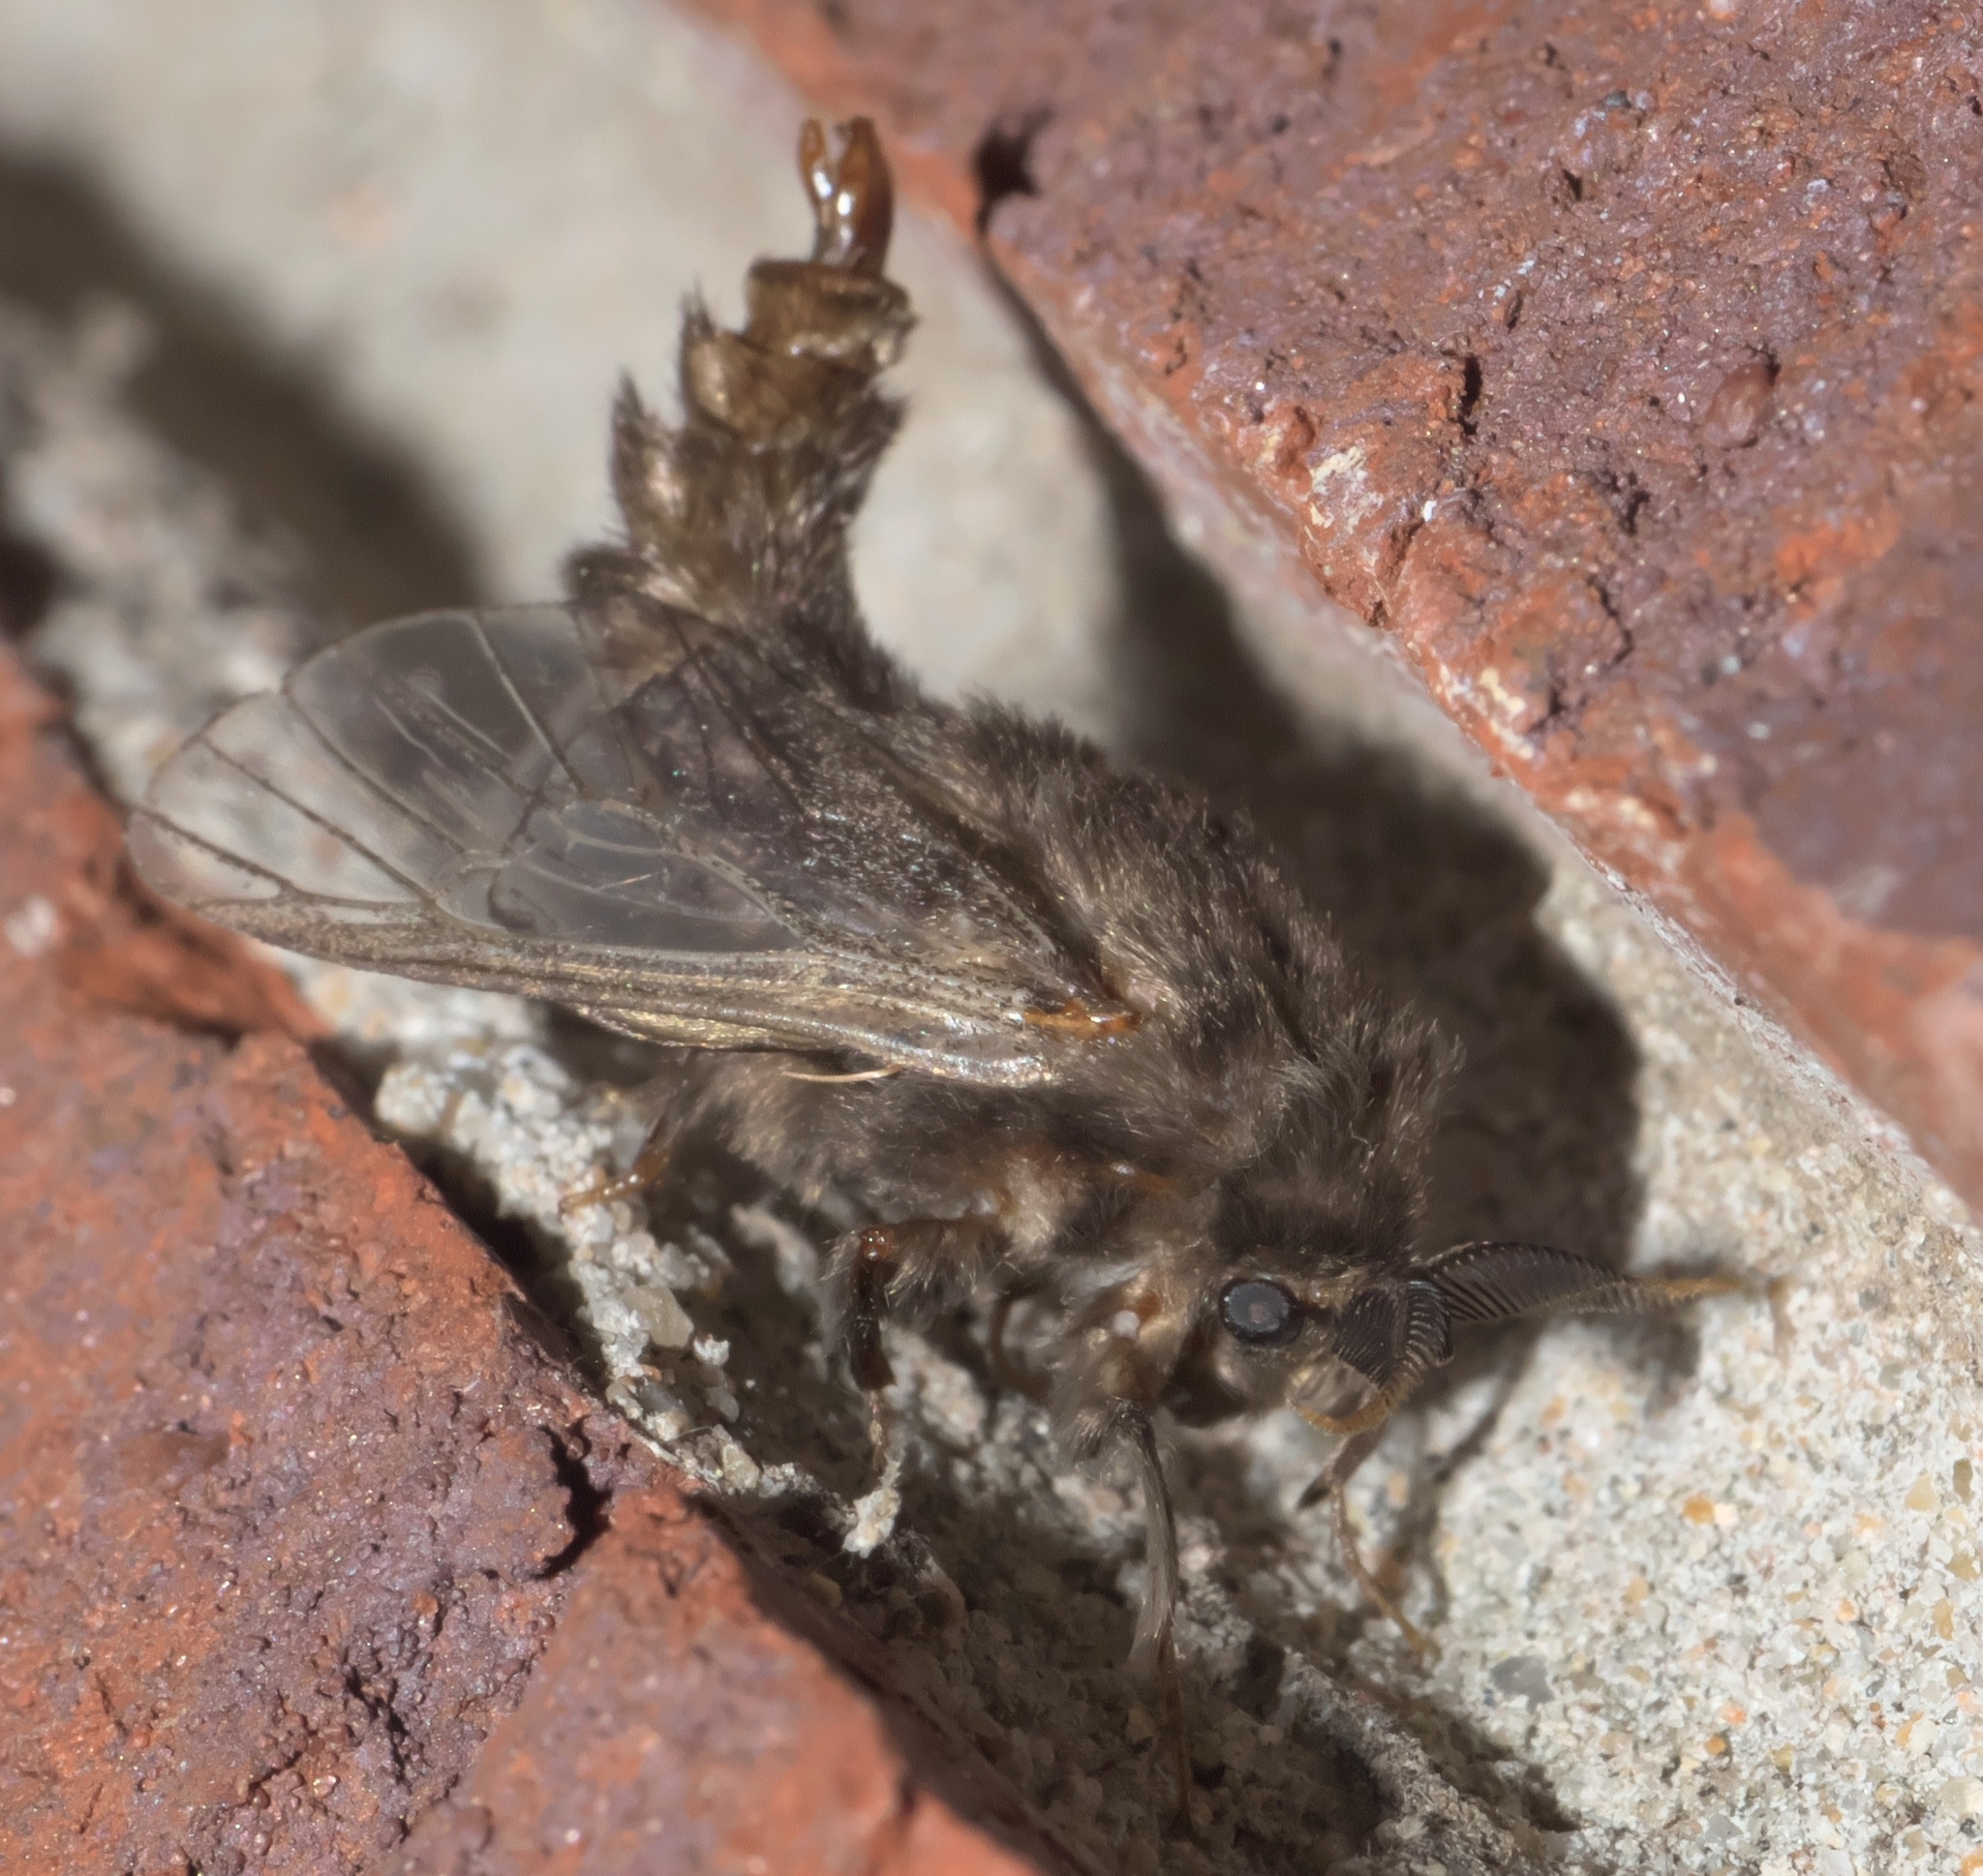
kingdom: Animalia
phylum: Arthropoda
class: Insecta
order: Lepidoptera
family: Psychidae
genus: Thyridopteryx
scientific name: Thyridopteryx ephemeraeformis
